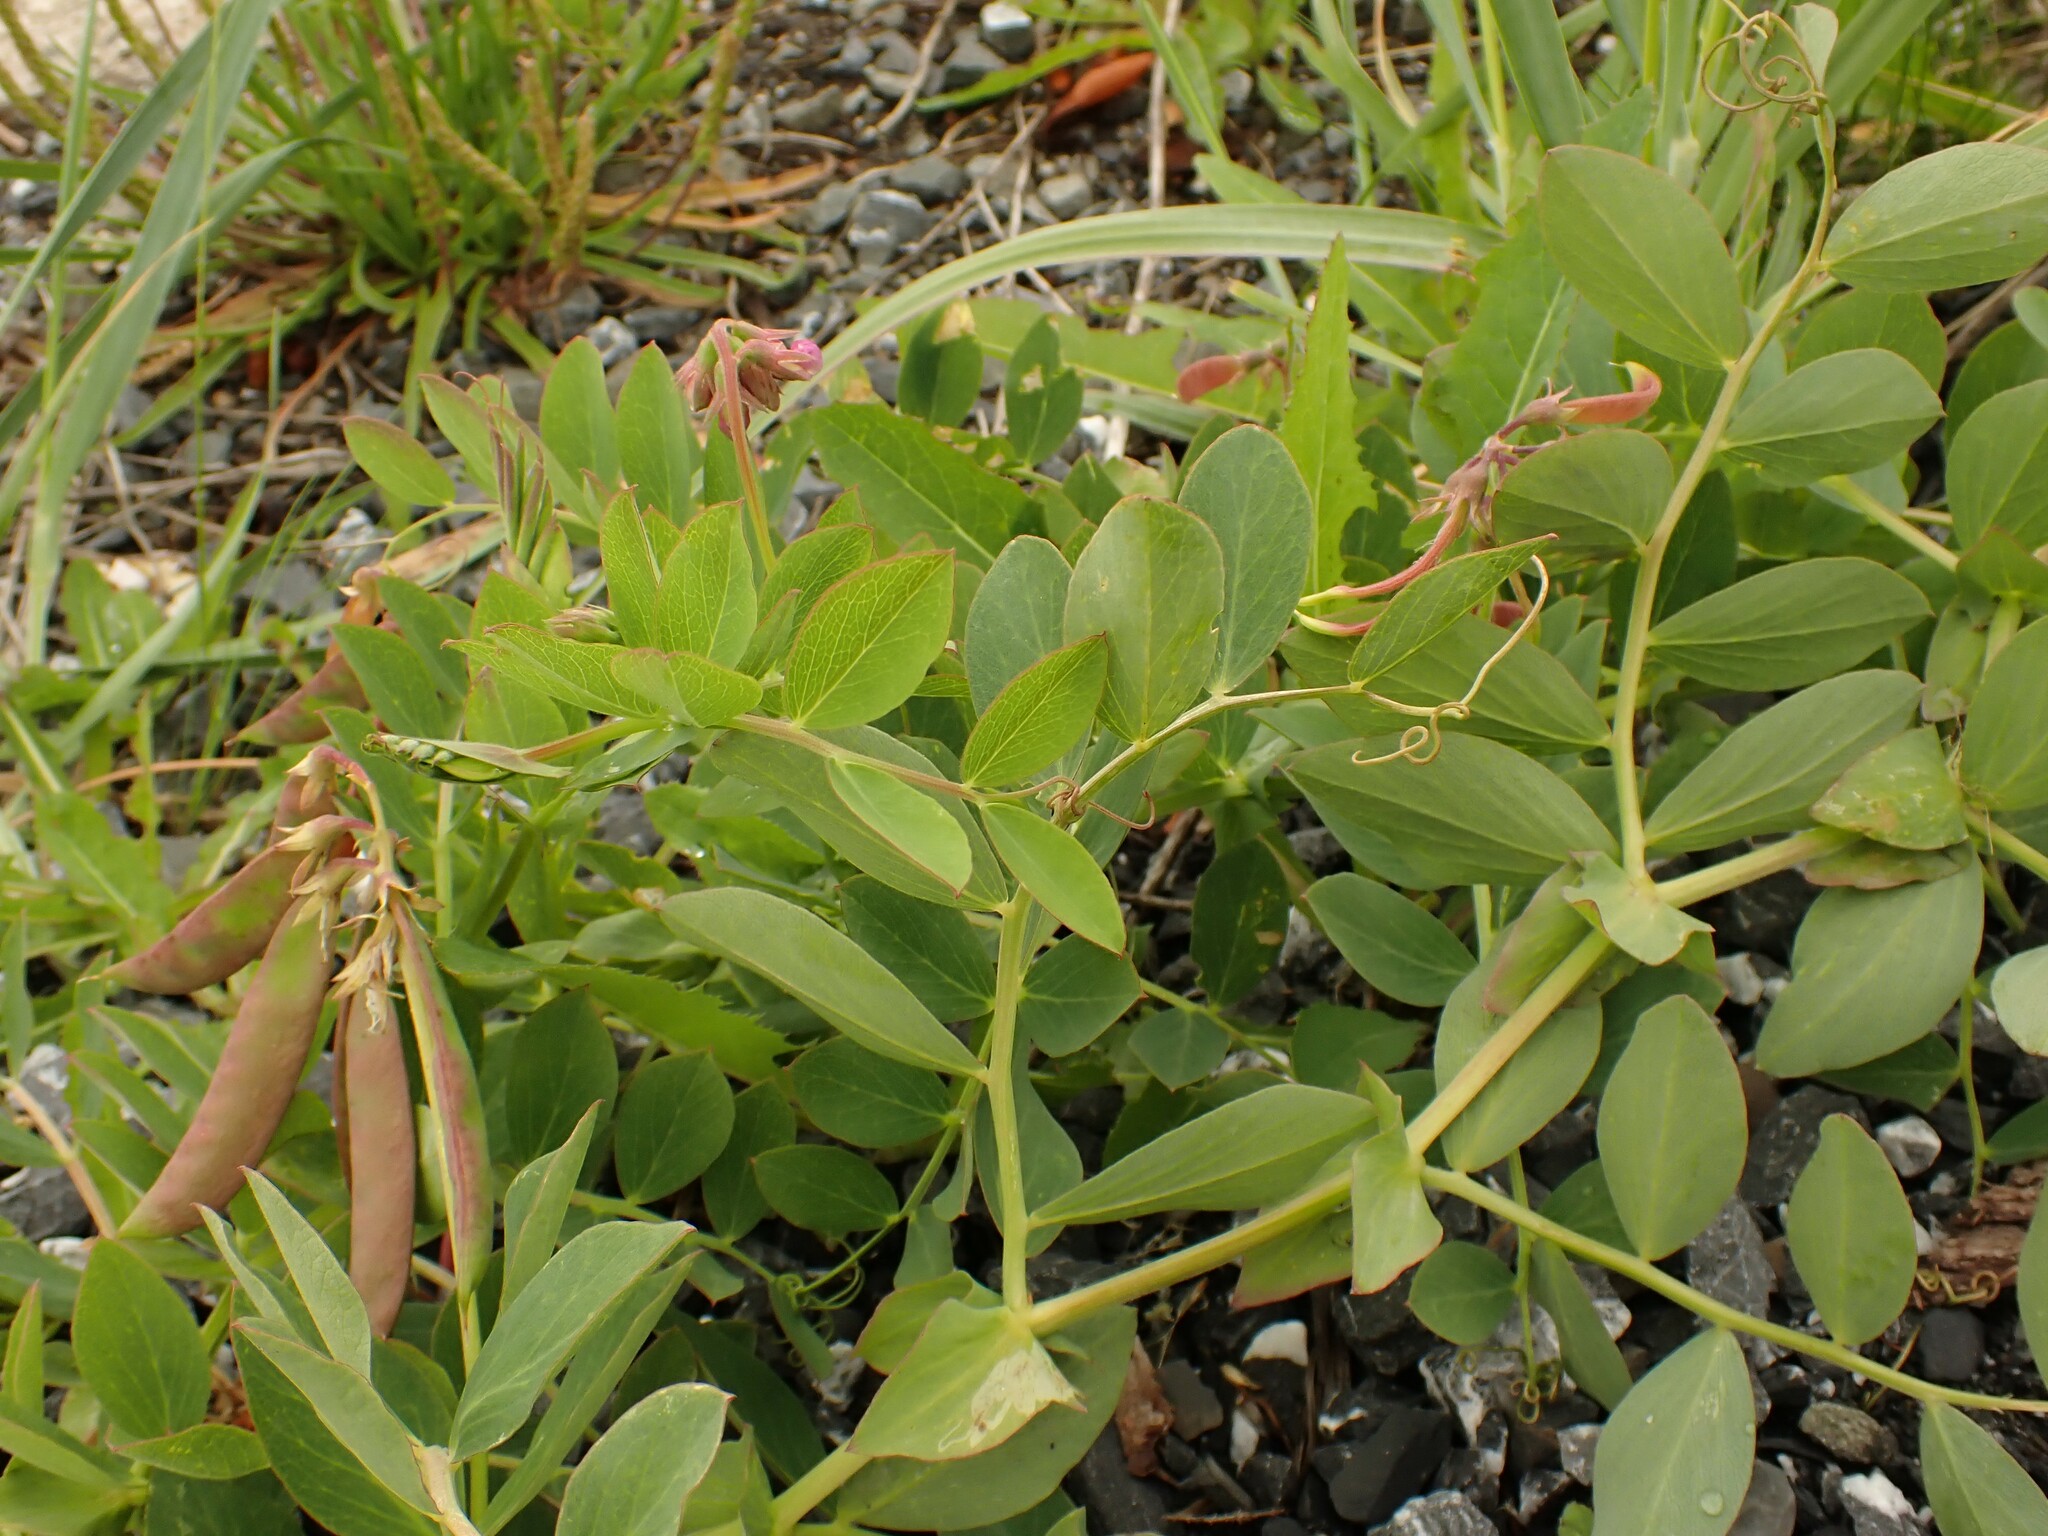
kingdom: Plantae
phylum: Tracheophyta
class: Magnoliopsida
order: Fabales
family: Fabaceae
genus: Lathyrus
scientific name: Lathyrus japonicus
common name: Sea pea
